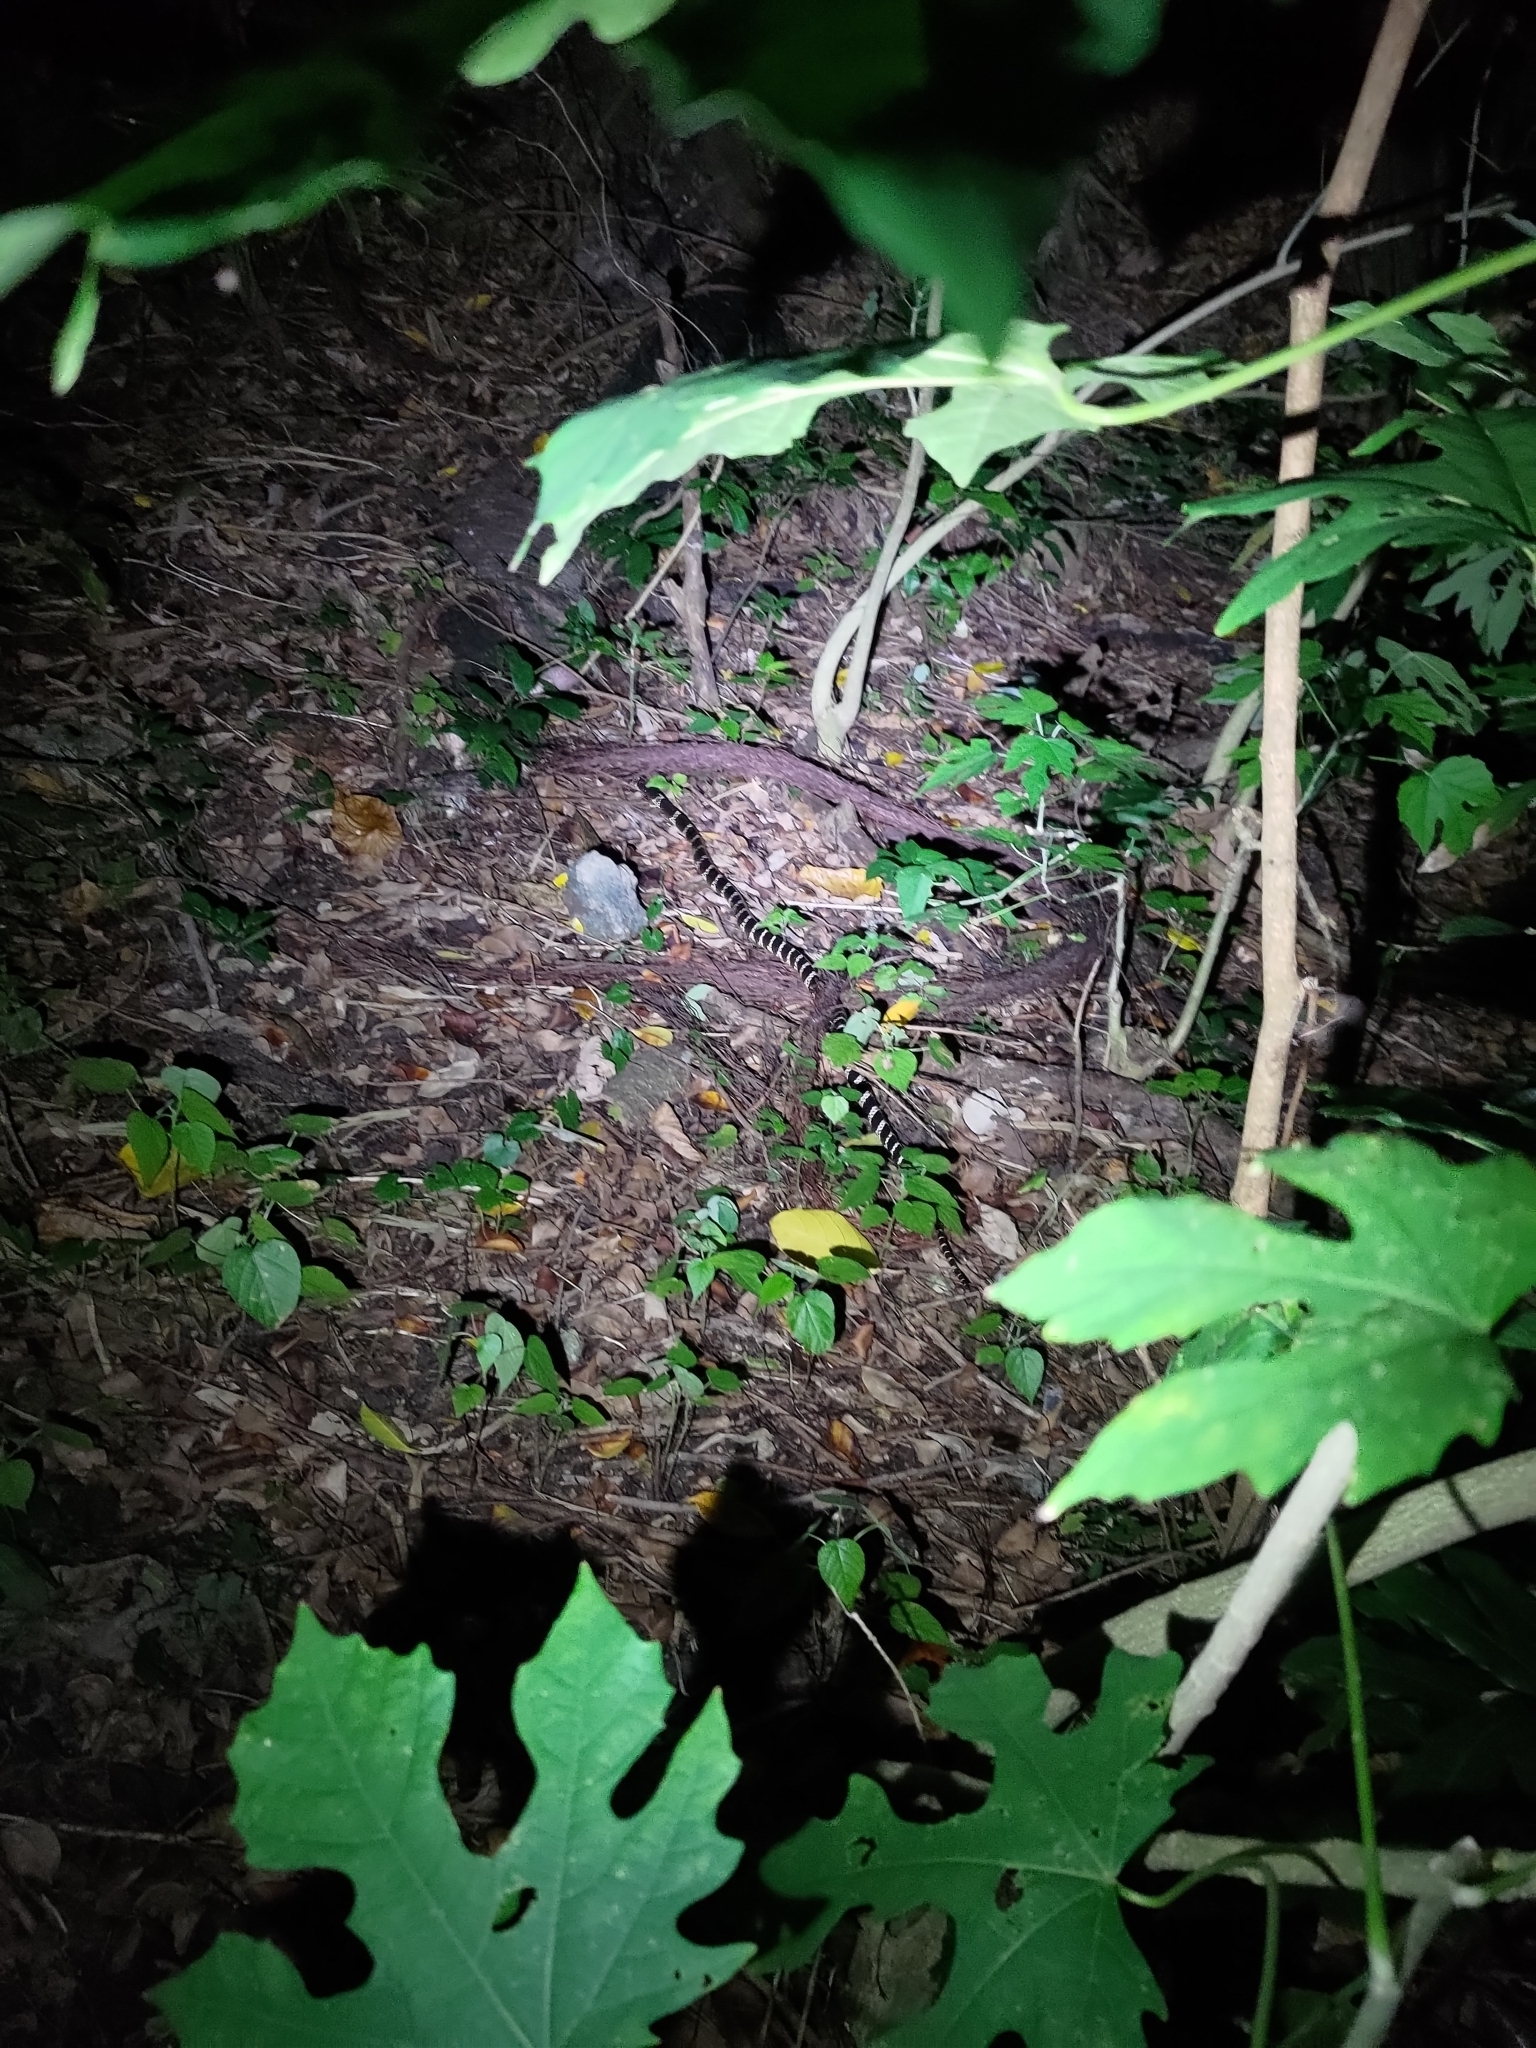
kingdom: Animalia
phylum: Chordata
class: Squamata
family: Elapidae
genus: Bungarus
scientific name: Bungarus multicinctus
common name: Many-banded krait
